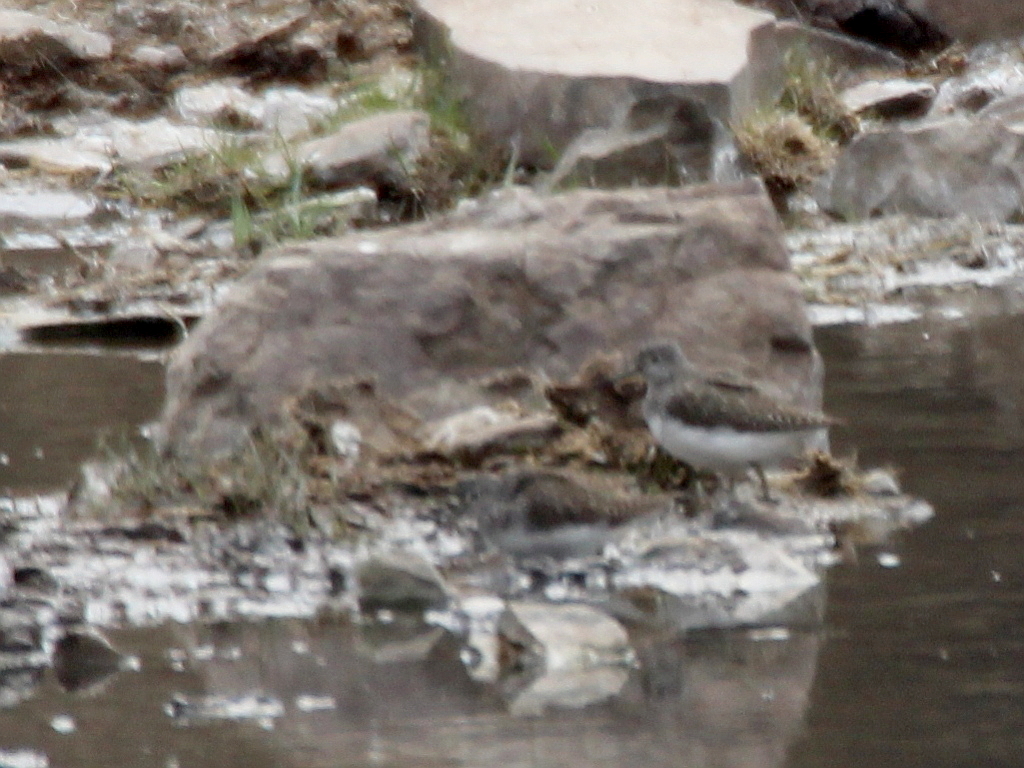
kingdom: Animalia
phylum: Chordata
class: Aves
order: Charadriiformes
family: Scolopacidae
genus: Tringa
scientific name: Tringa ochropus
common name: Green sandpiper
